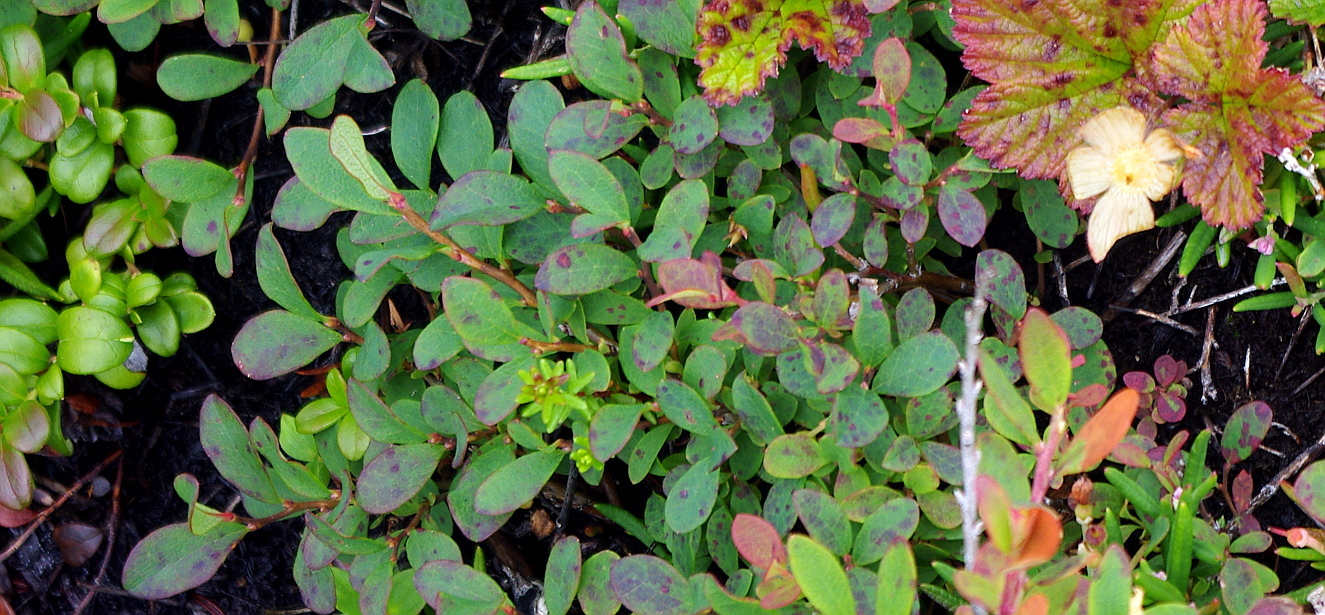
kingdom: Plantae
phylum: Tracheophyta
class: Magnoliopsida
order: Ericales
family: Ericaceae
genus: Vaccinium
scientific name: Vaccinium uliginosum
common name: Bog bilberry
